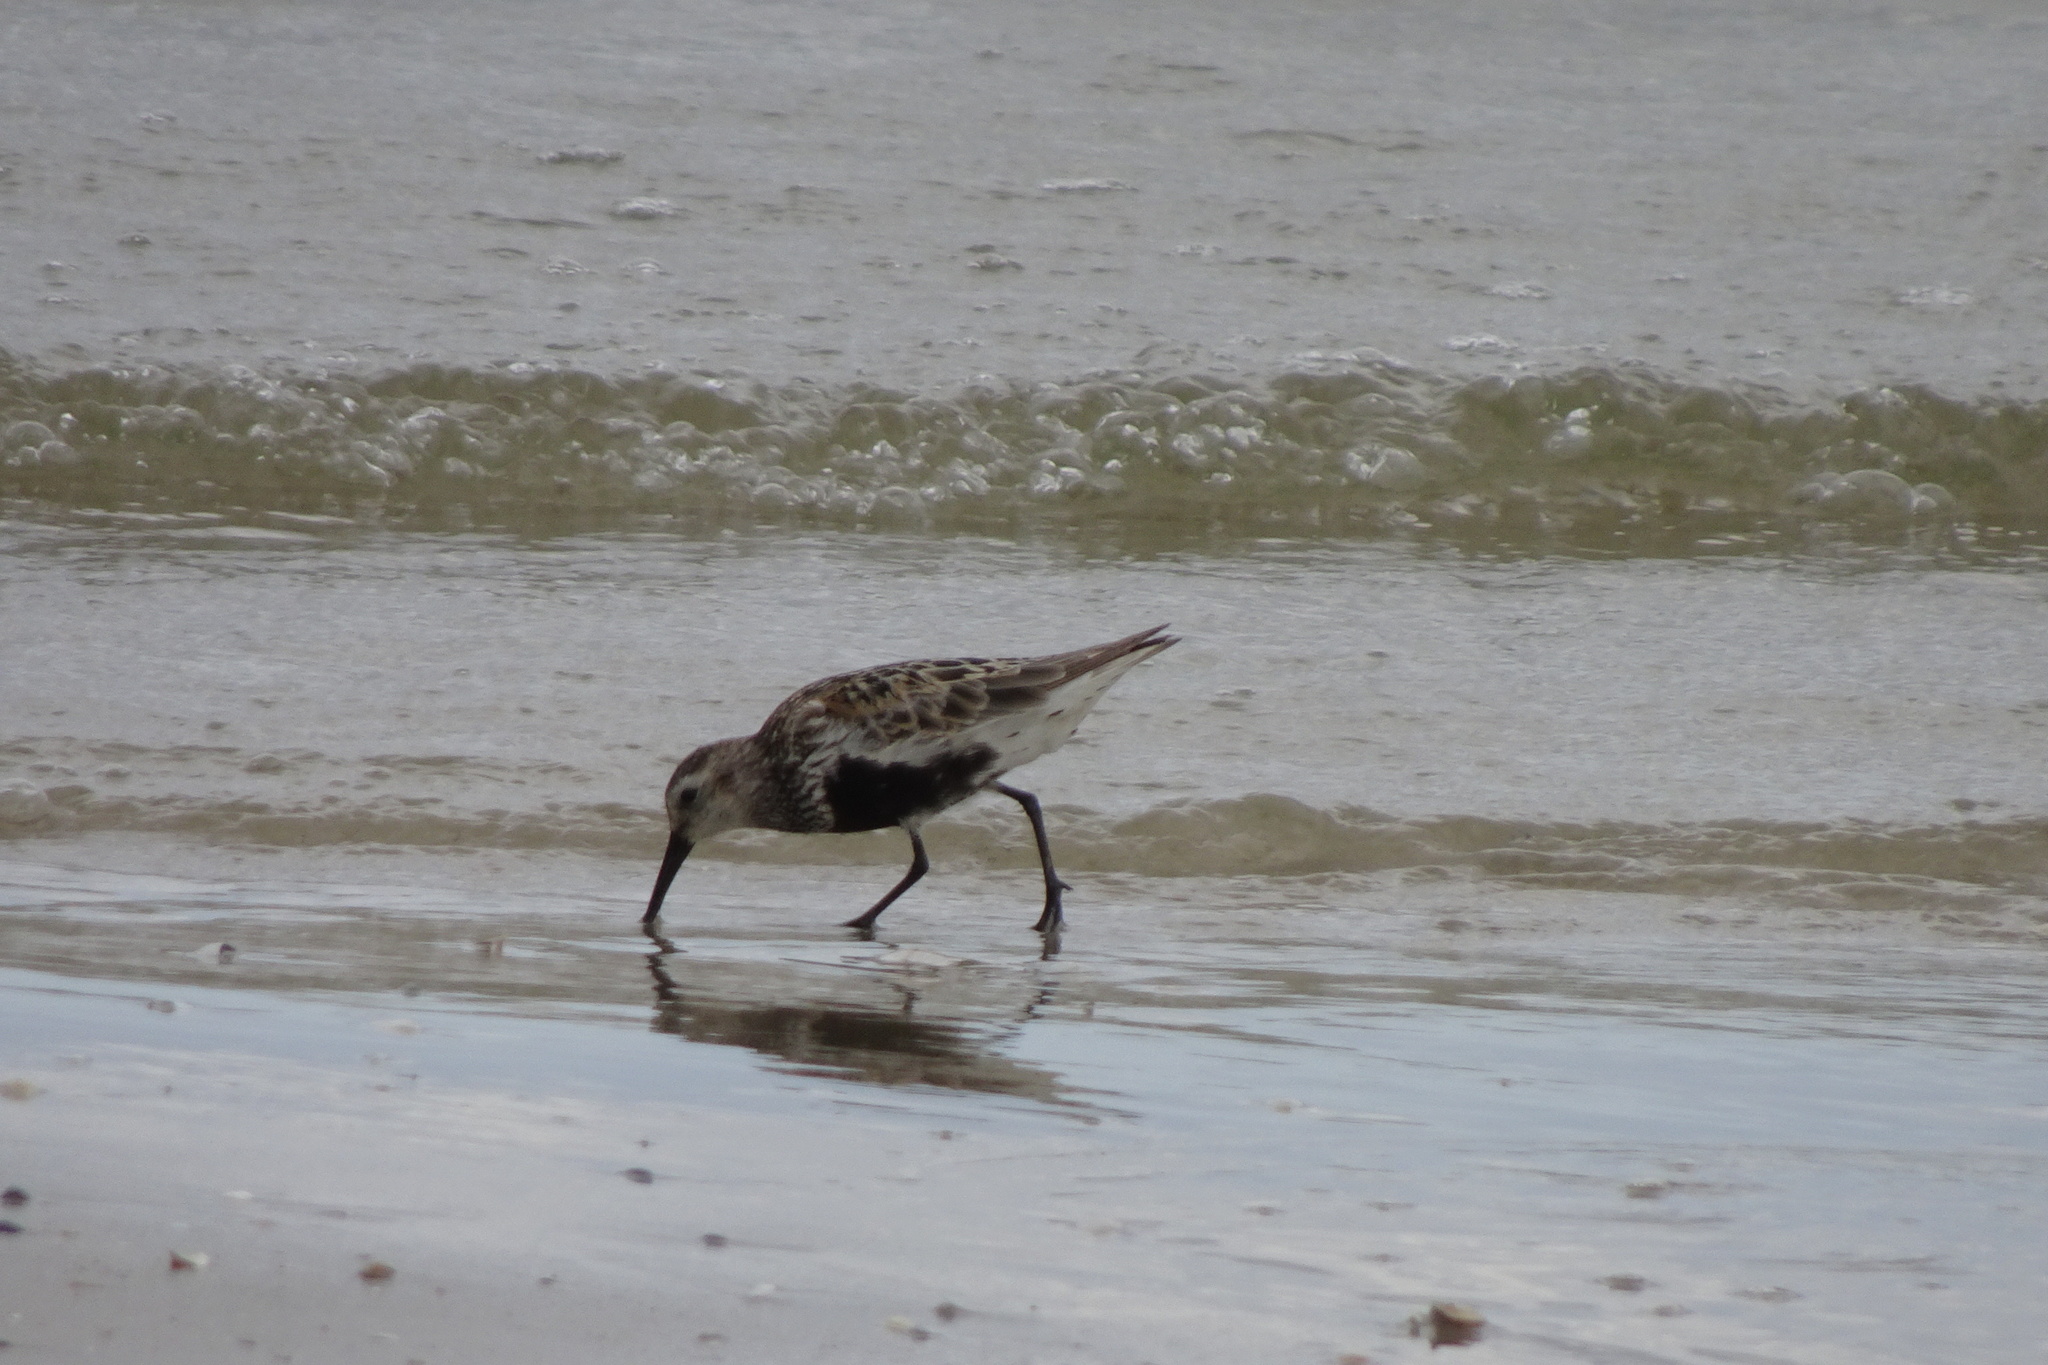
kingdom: Animalia
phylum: Chordata
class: Aves
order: Charadriiformes
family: Scolopacidae
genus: Calidris
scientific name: Calidris alpina
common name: Dunlin
